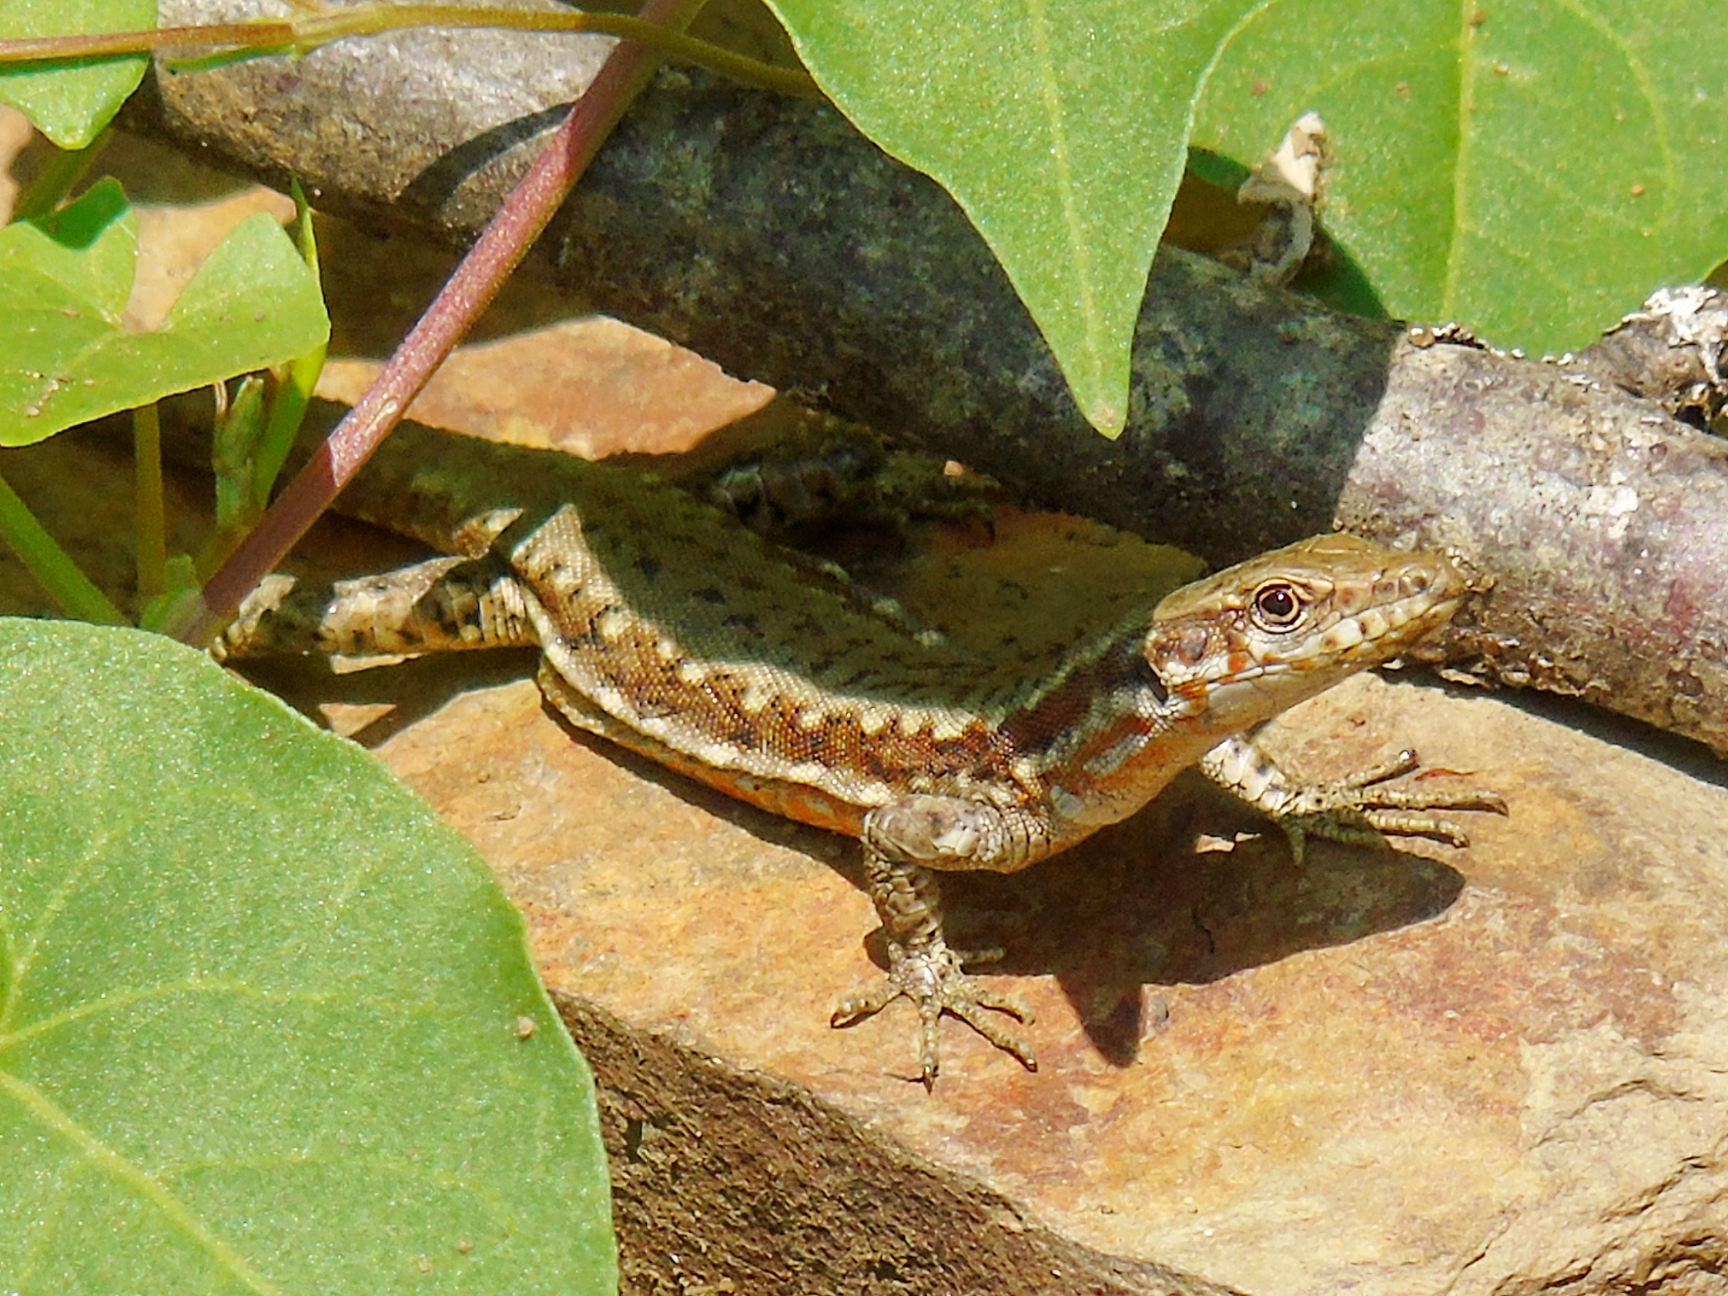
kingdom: Animalia
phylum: Chordata
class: Squamata
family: Lacertidae
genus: Darevskia
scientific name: Darevskia
